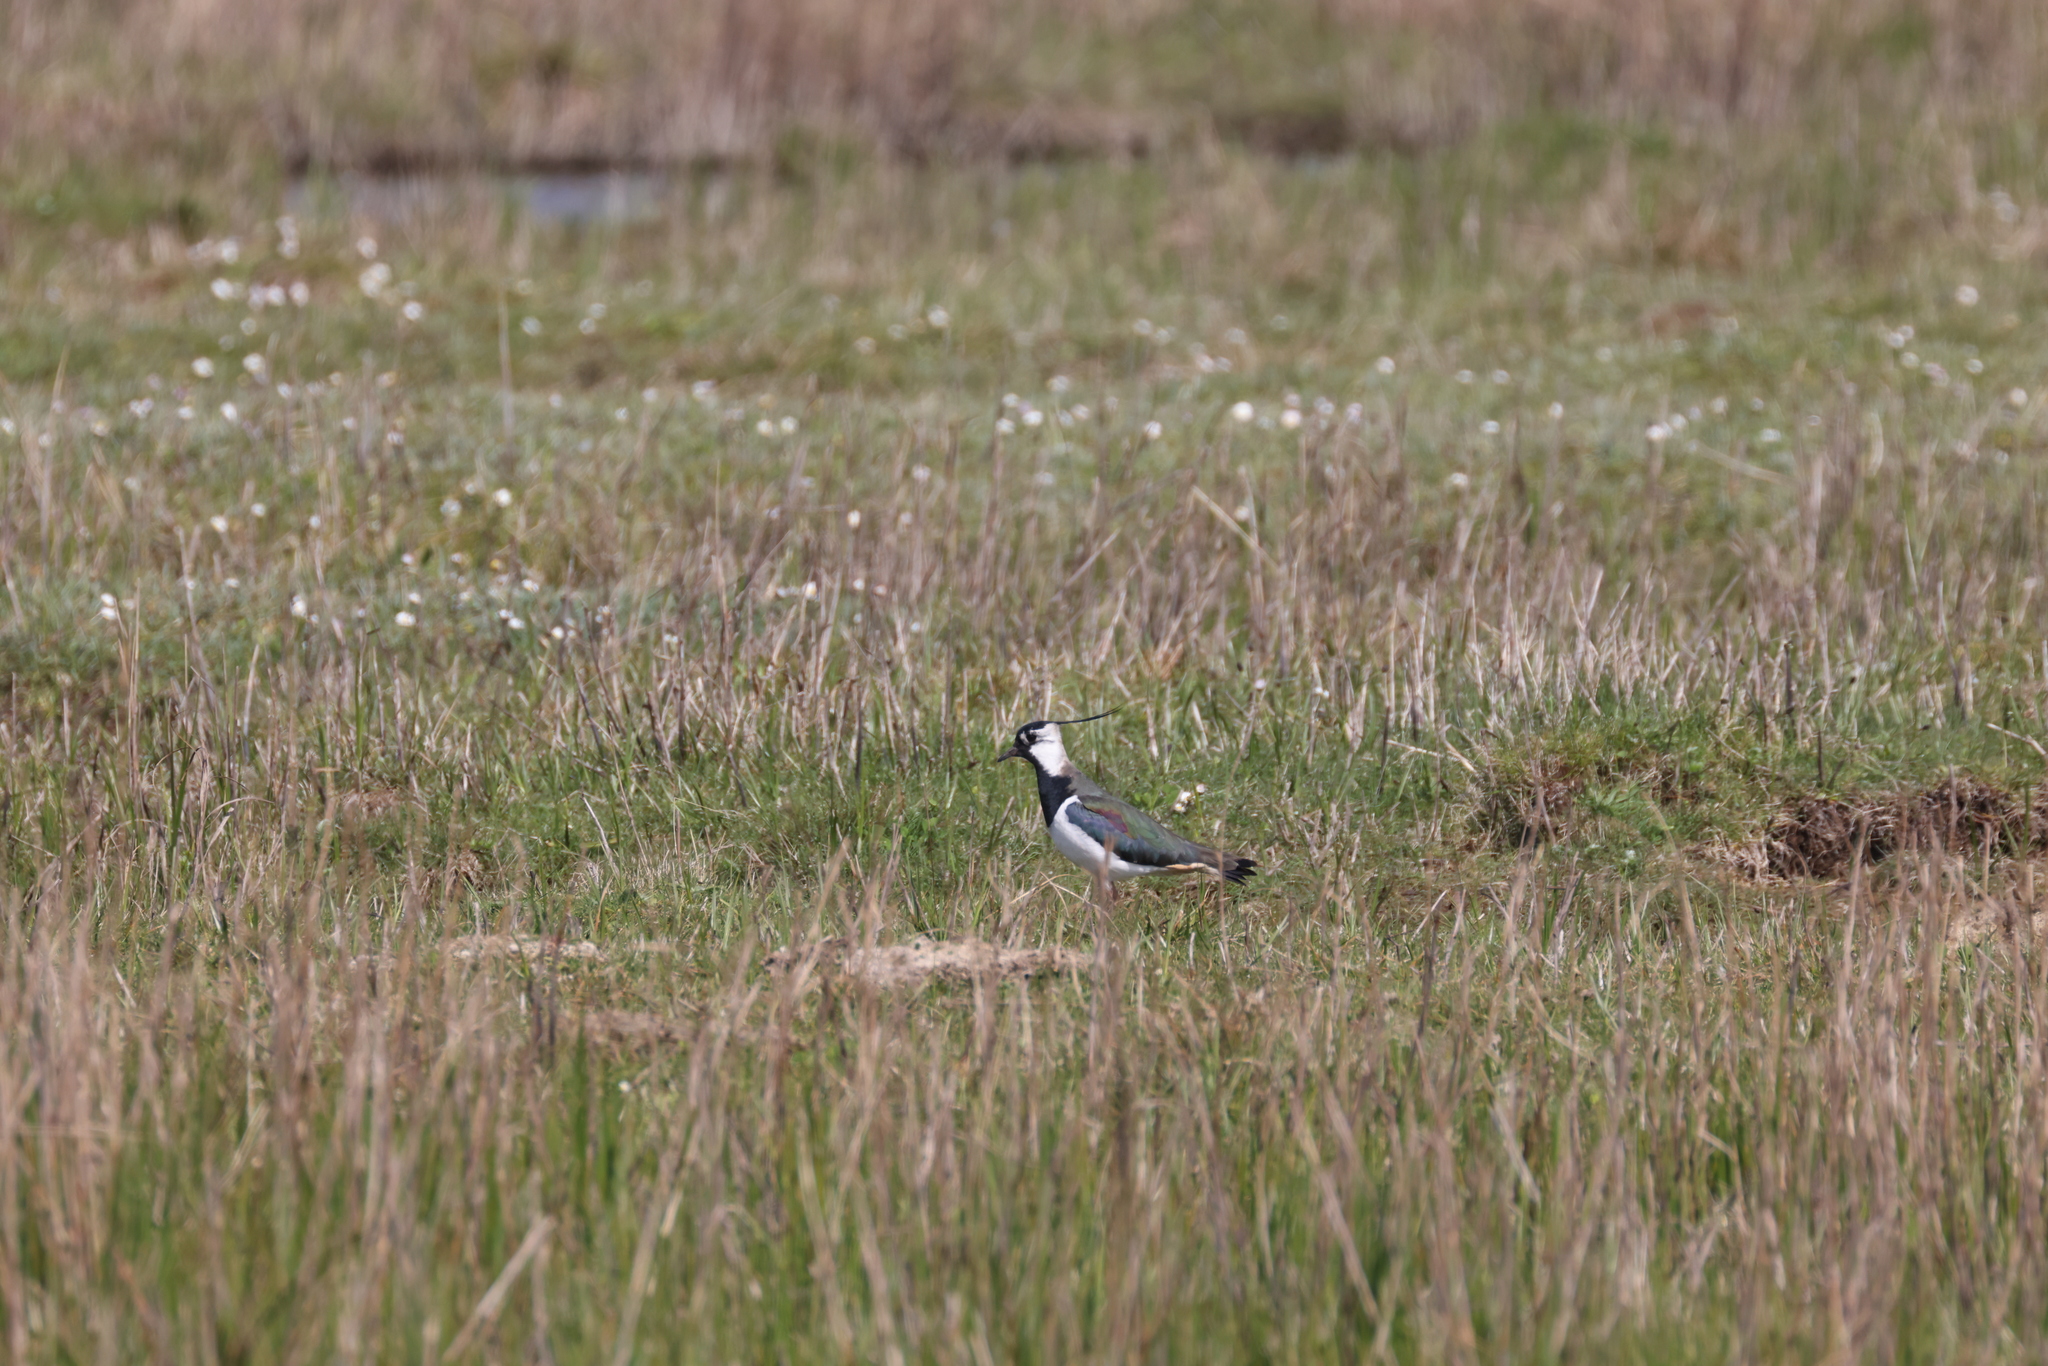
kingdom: Animalia
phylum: Chordata
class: Aves
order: Charadriiformes
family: Charadriidae
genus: Vanellus
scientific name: Vanellus vanellus
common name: Northern lapwing
